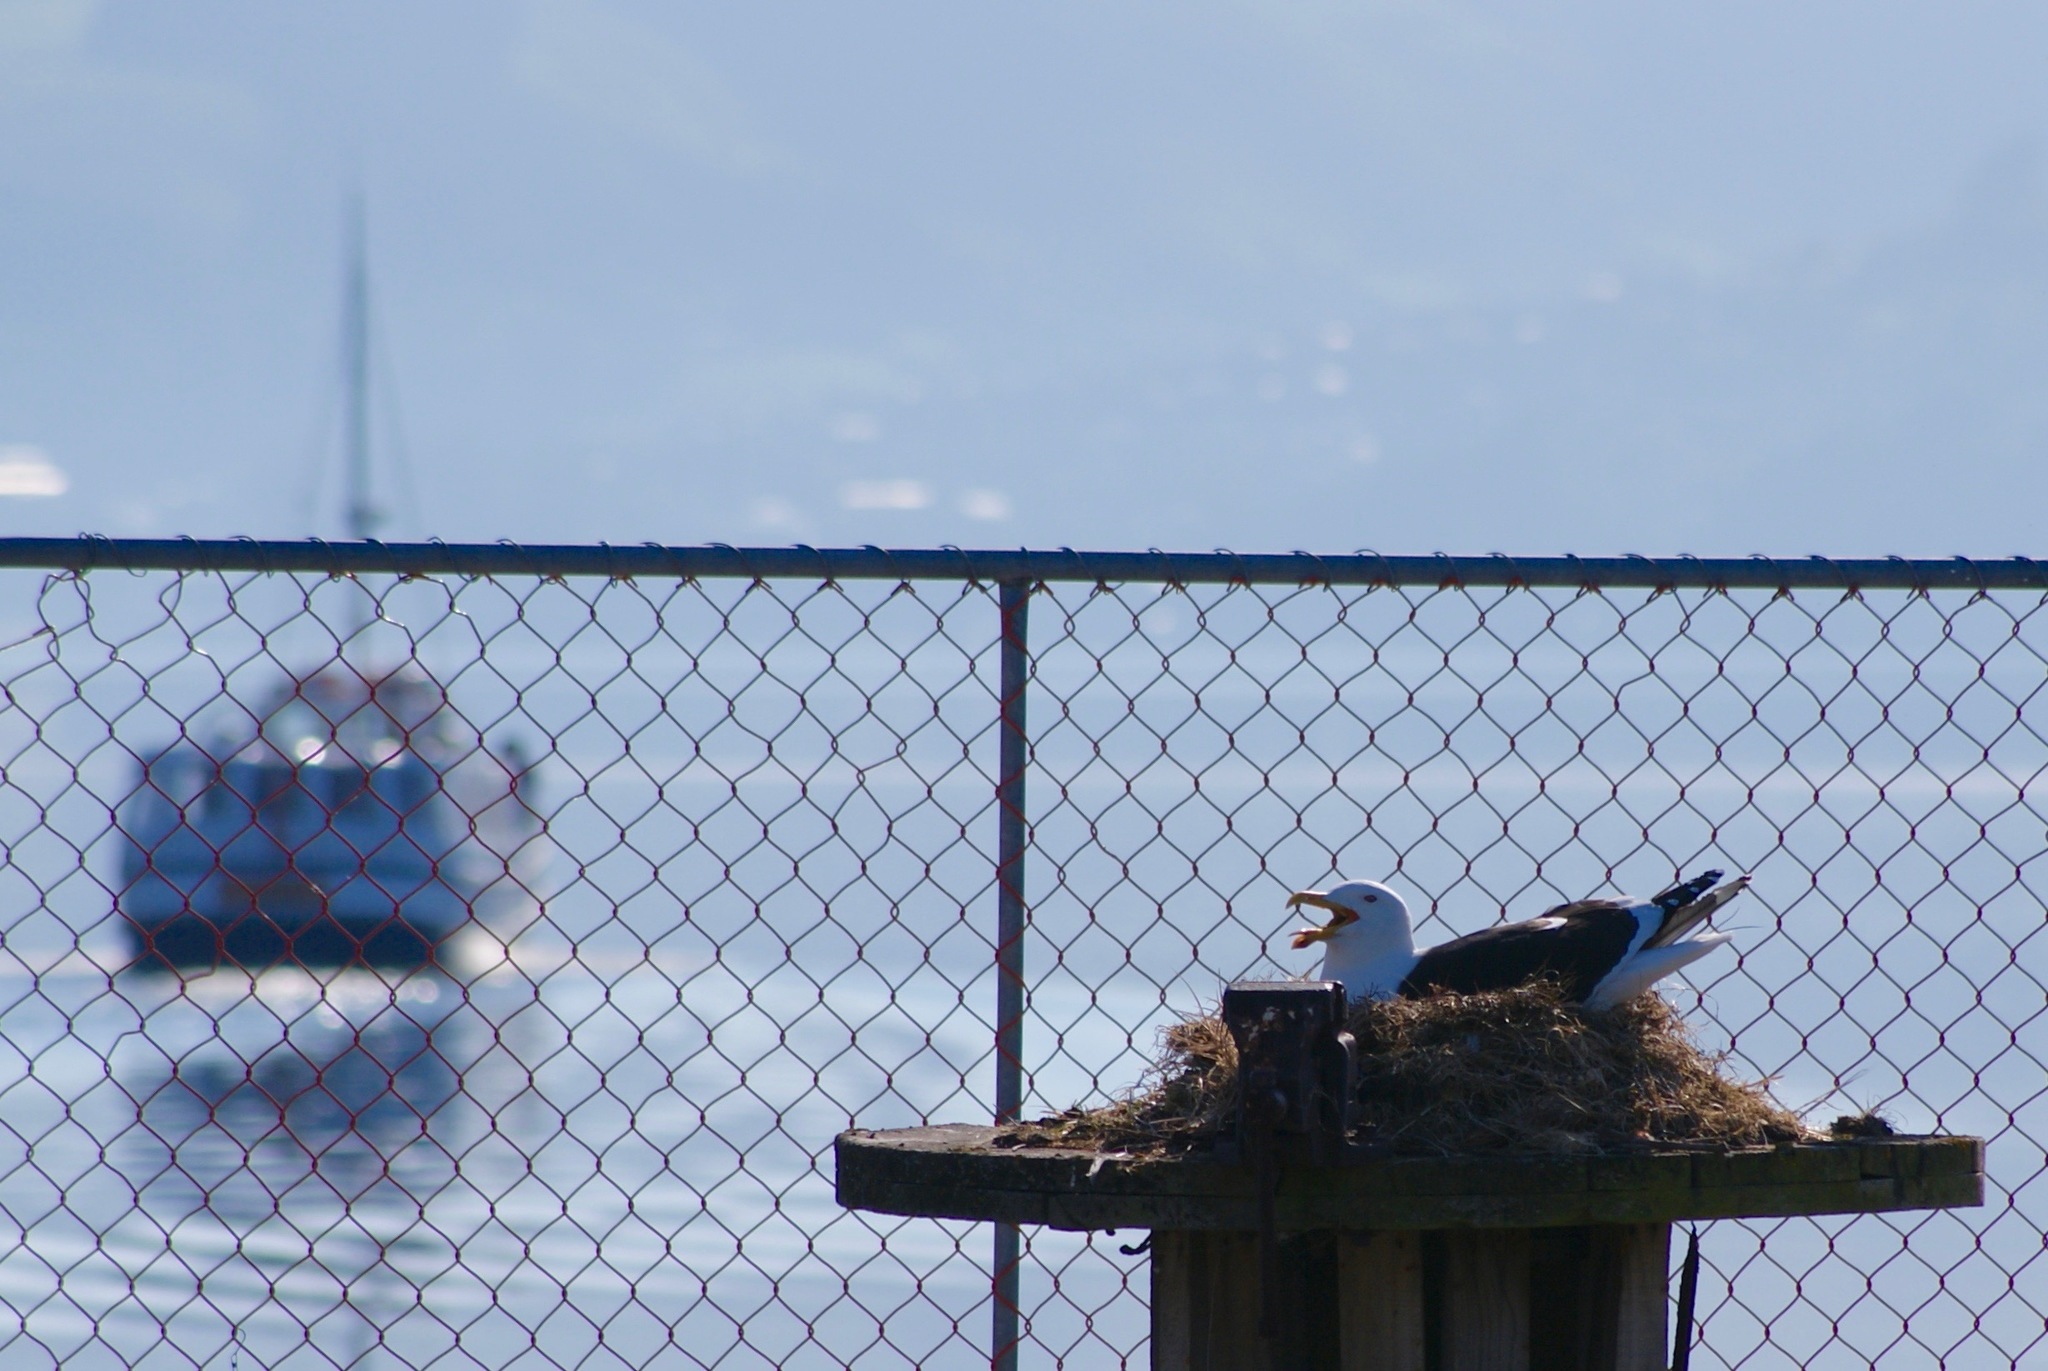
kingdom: Animalia
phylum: Chordata
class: Aves
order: Charadriiformes
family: Laridae
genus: Larus
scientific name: Larus dominicanus
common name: Kelp gull
